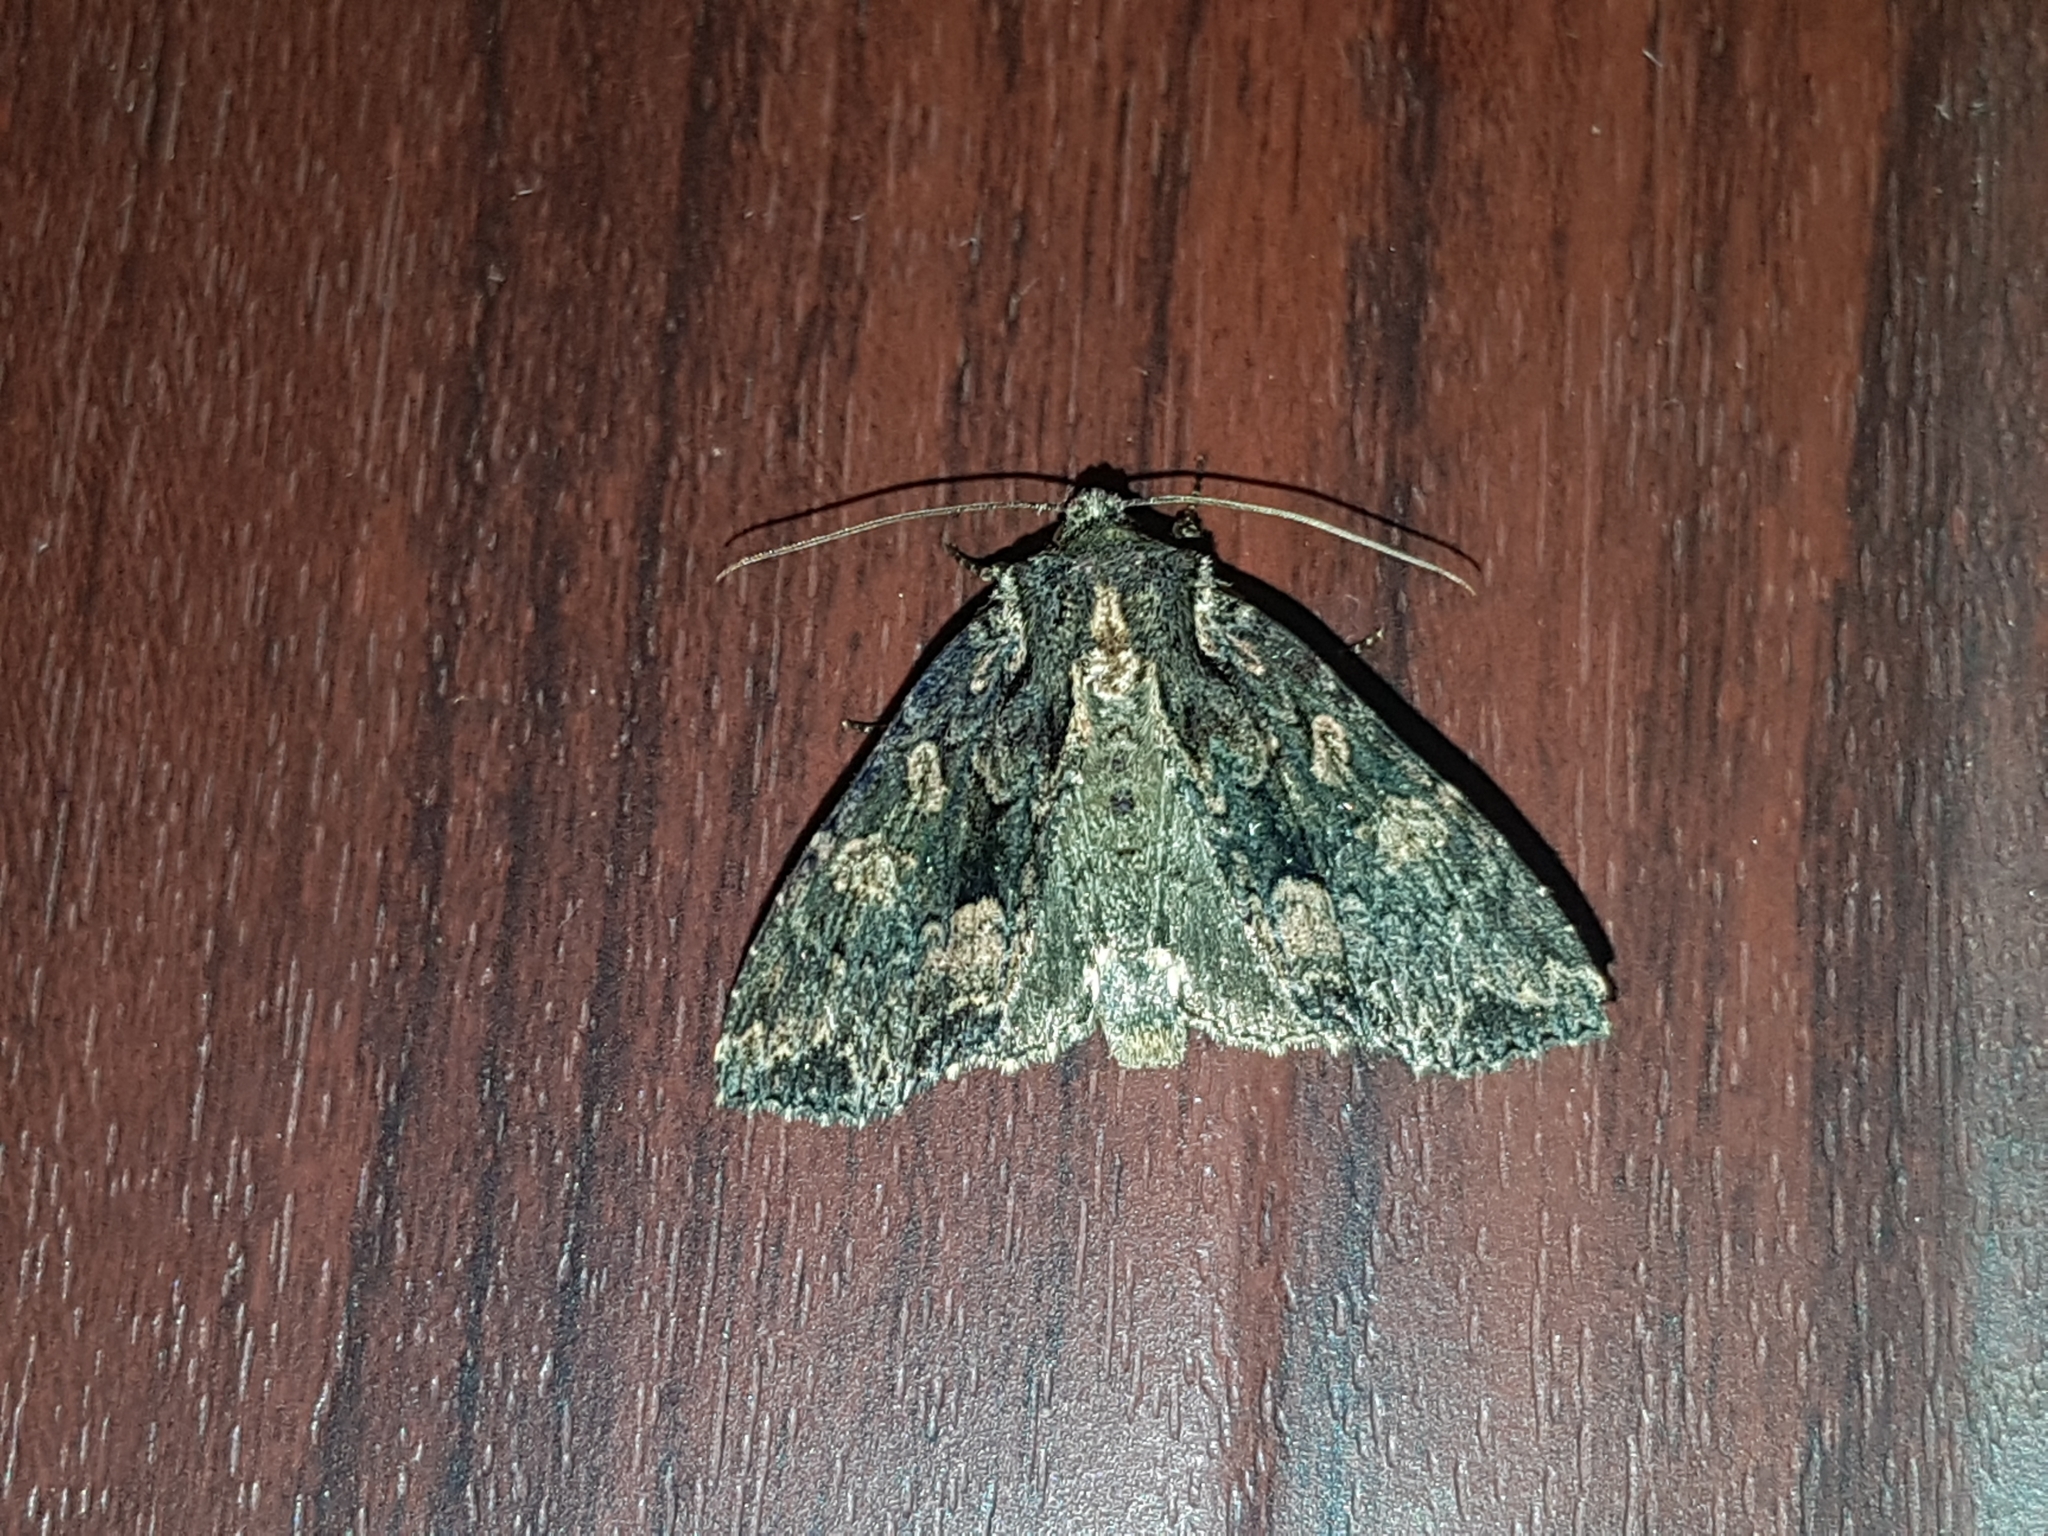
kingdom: Animalia
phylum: Arthropoda
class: Insecta
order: Lepidoptera
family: Noctuidae
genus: Mniotype
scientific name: Mniotype satura
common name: Beautiful arches
